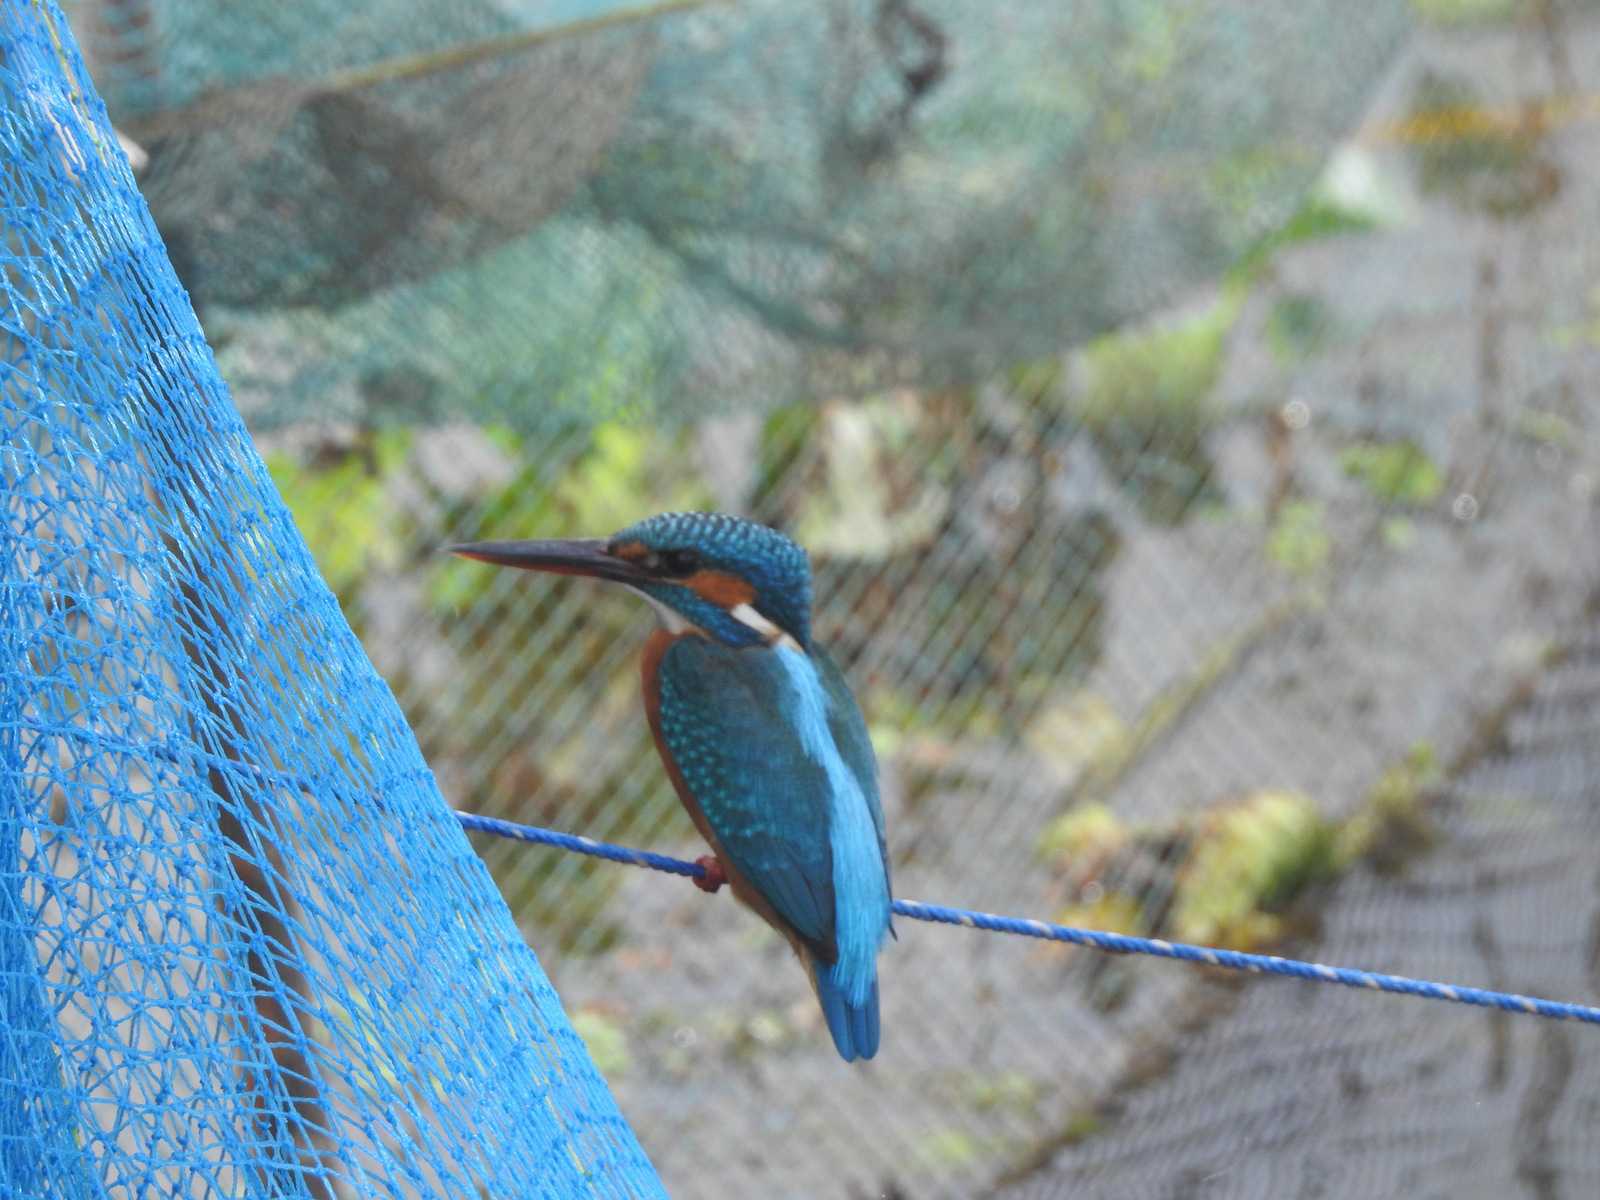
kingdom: Animalia
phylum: Chordata
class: Aves
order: Coraciiformes
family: Alcedinidae
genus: Alcedo
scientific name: Alcedo atthis
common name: Common kingfisher
